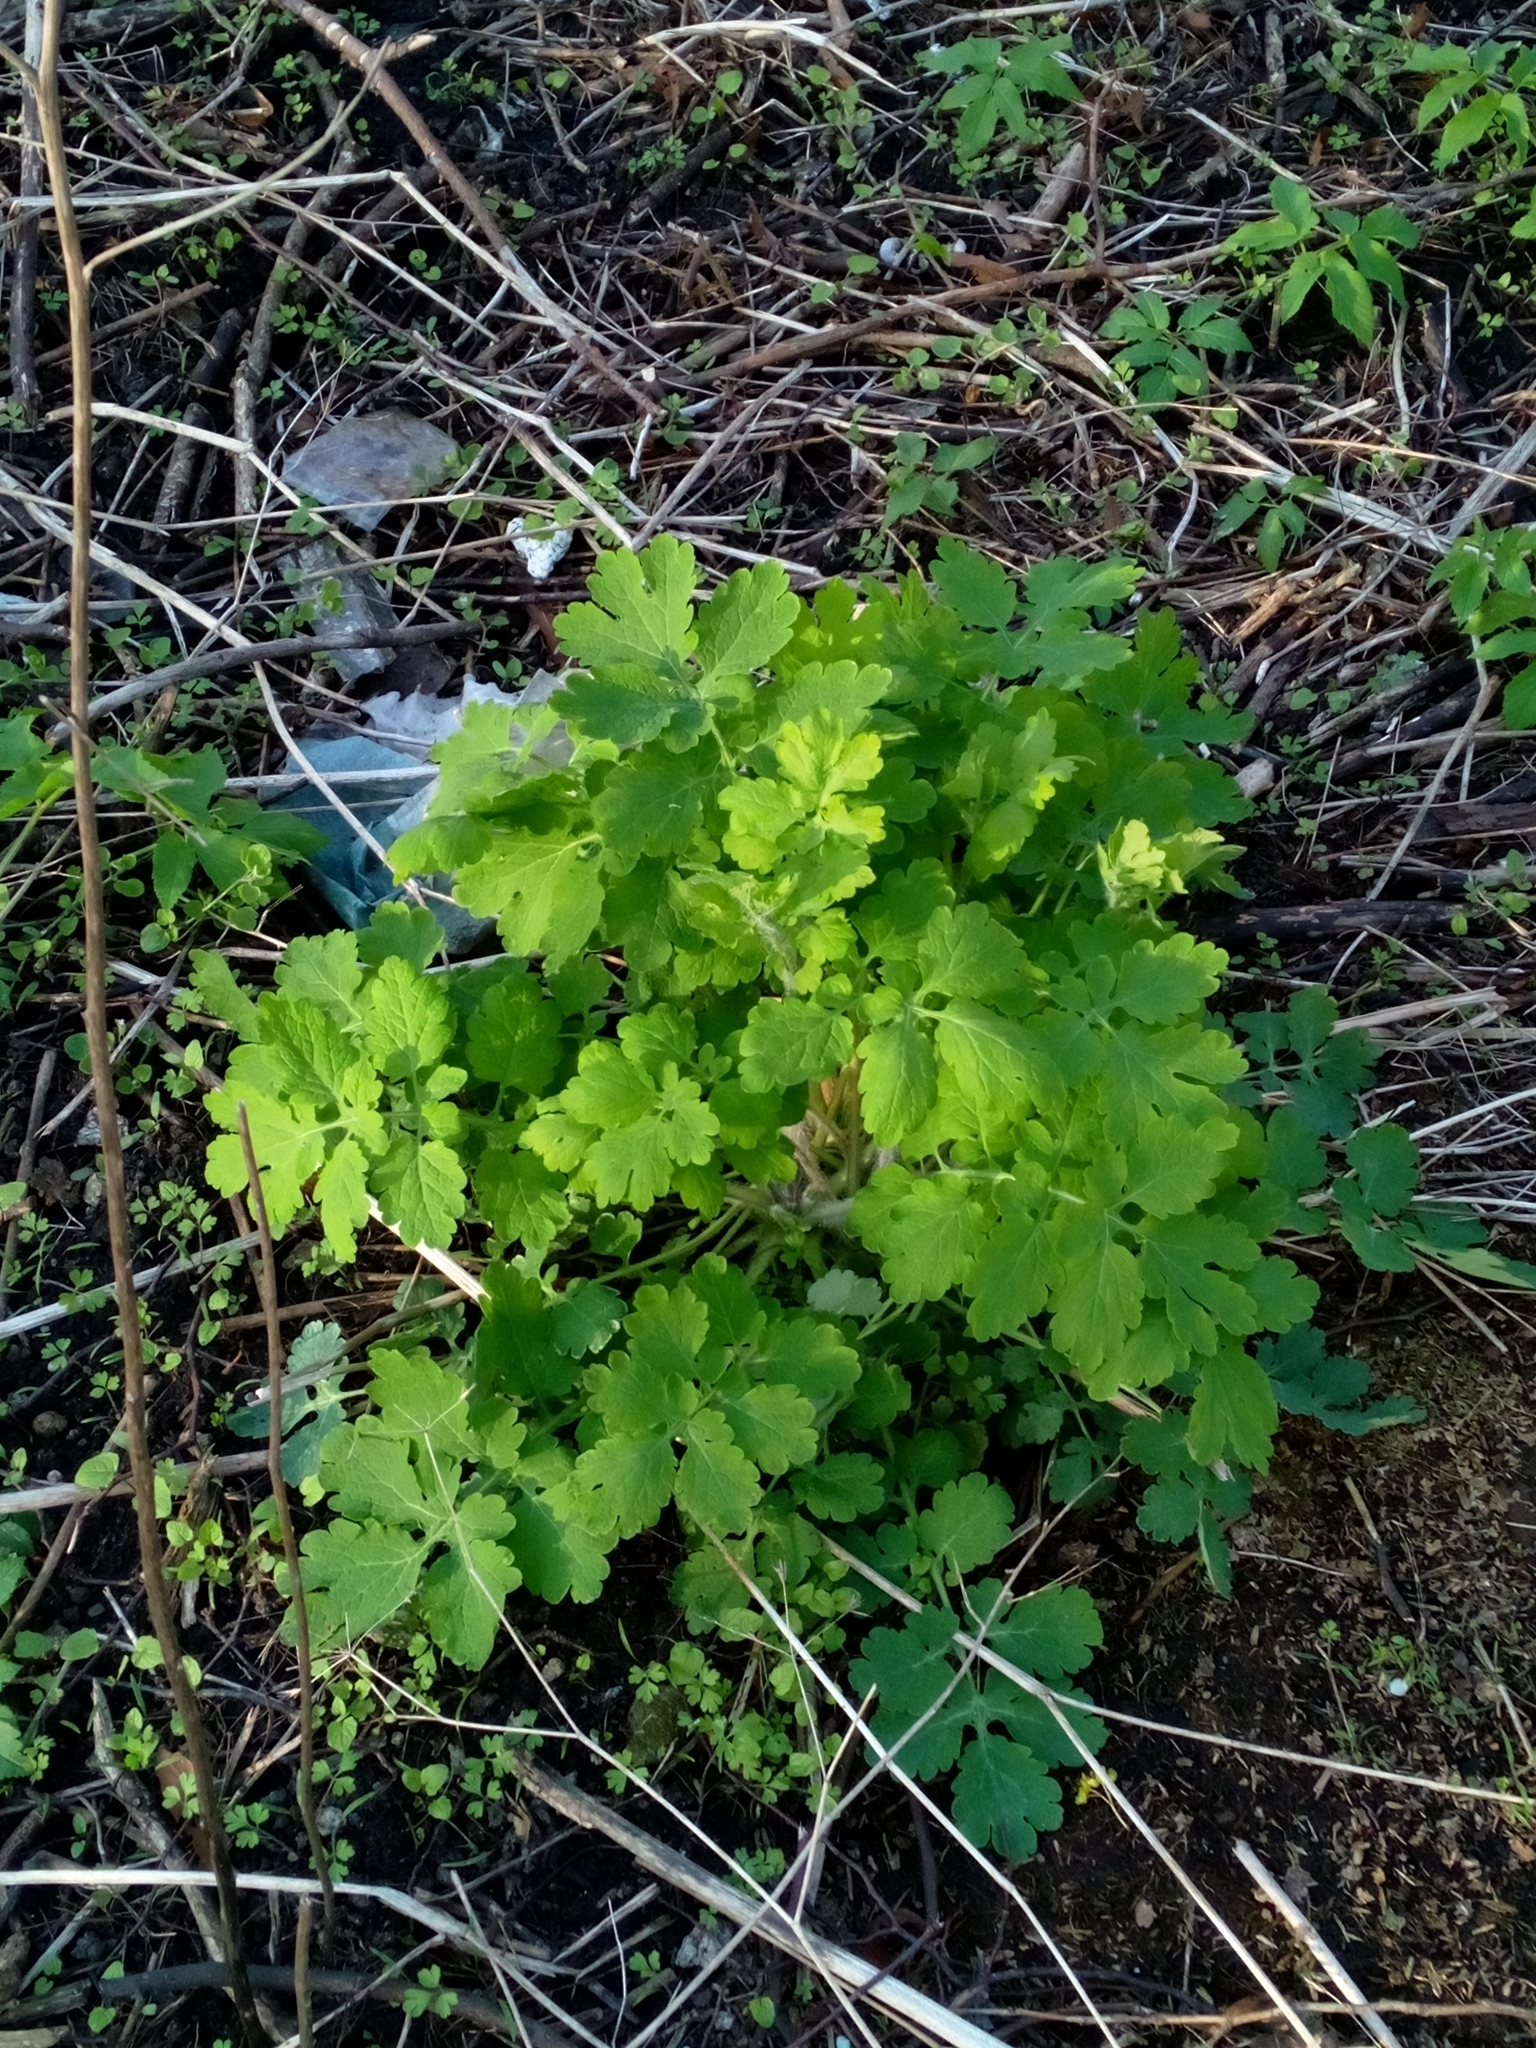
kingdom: Plantae
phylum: Tracheophyta
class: Magnoliopsida
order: Ranunculales
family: Papaveraceae
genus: Chelidonium
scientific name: Chelidonium majus
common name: Greater celandine
